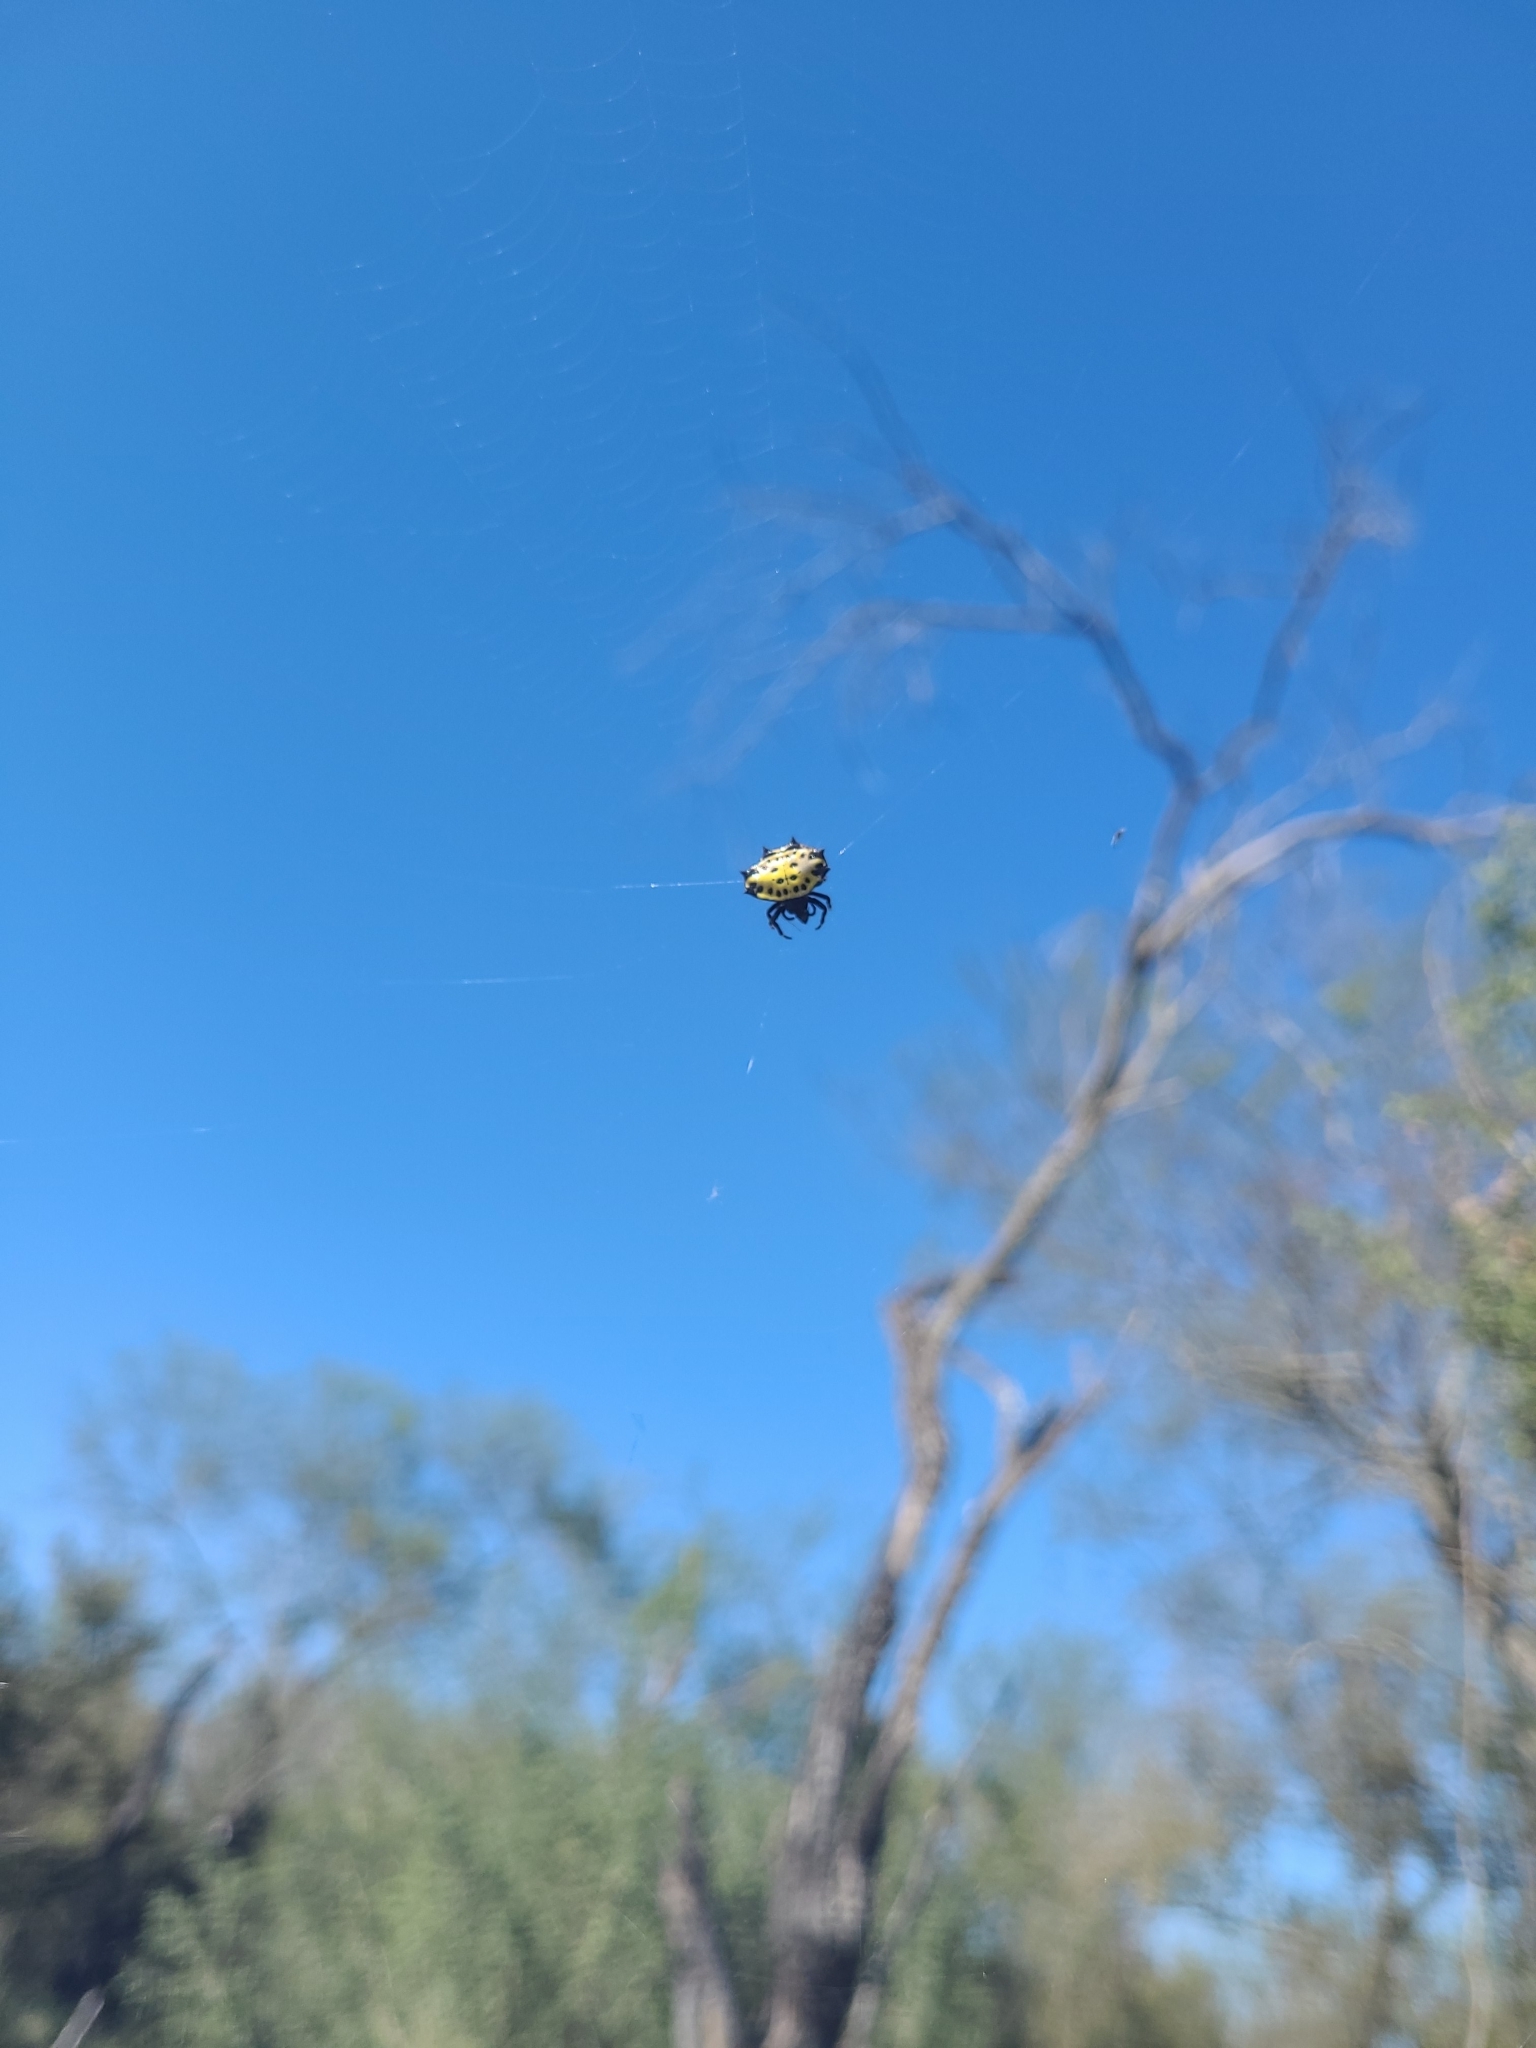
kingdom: Animalia
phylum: Arthropoda
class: Arachnida
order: Araneae
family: Araneidae
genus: Gasteracantha
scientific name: Gasteracantha cancriformis
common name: Orb weavers
